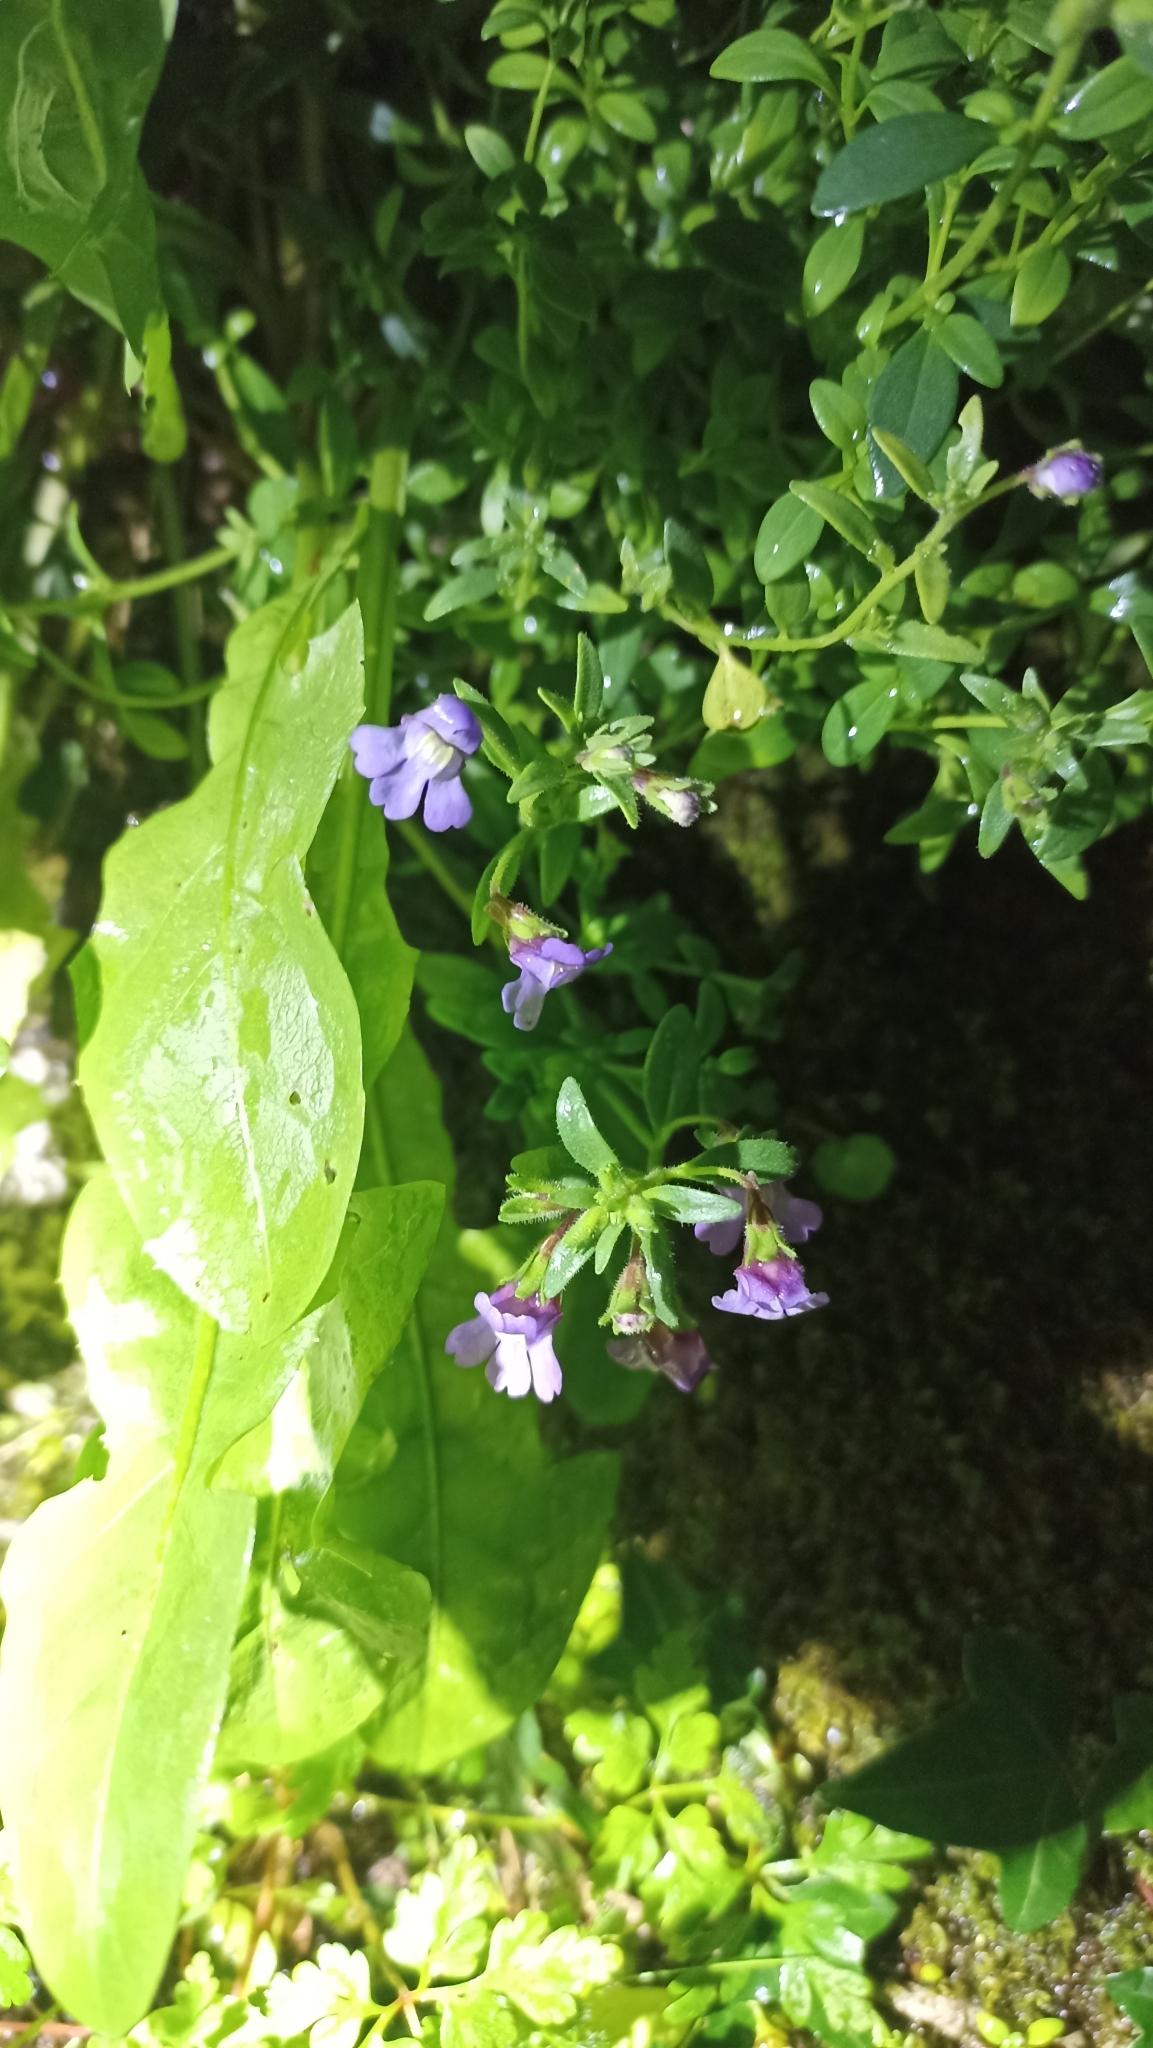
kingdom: Plantae
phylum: Tracheophyta
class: Magnoliopsida
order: Lamiales
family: Plantaginaceae
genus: Chaenorhinum
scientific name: Chaenorhinum origanifolium
